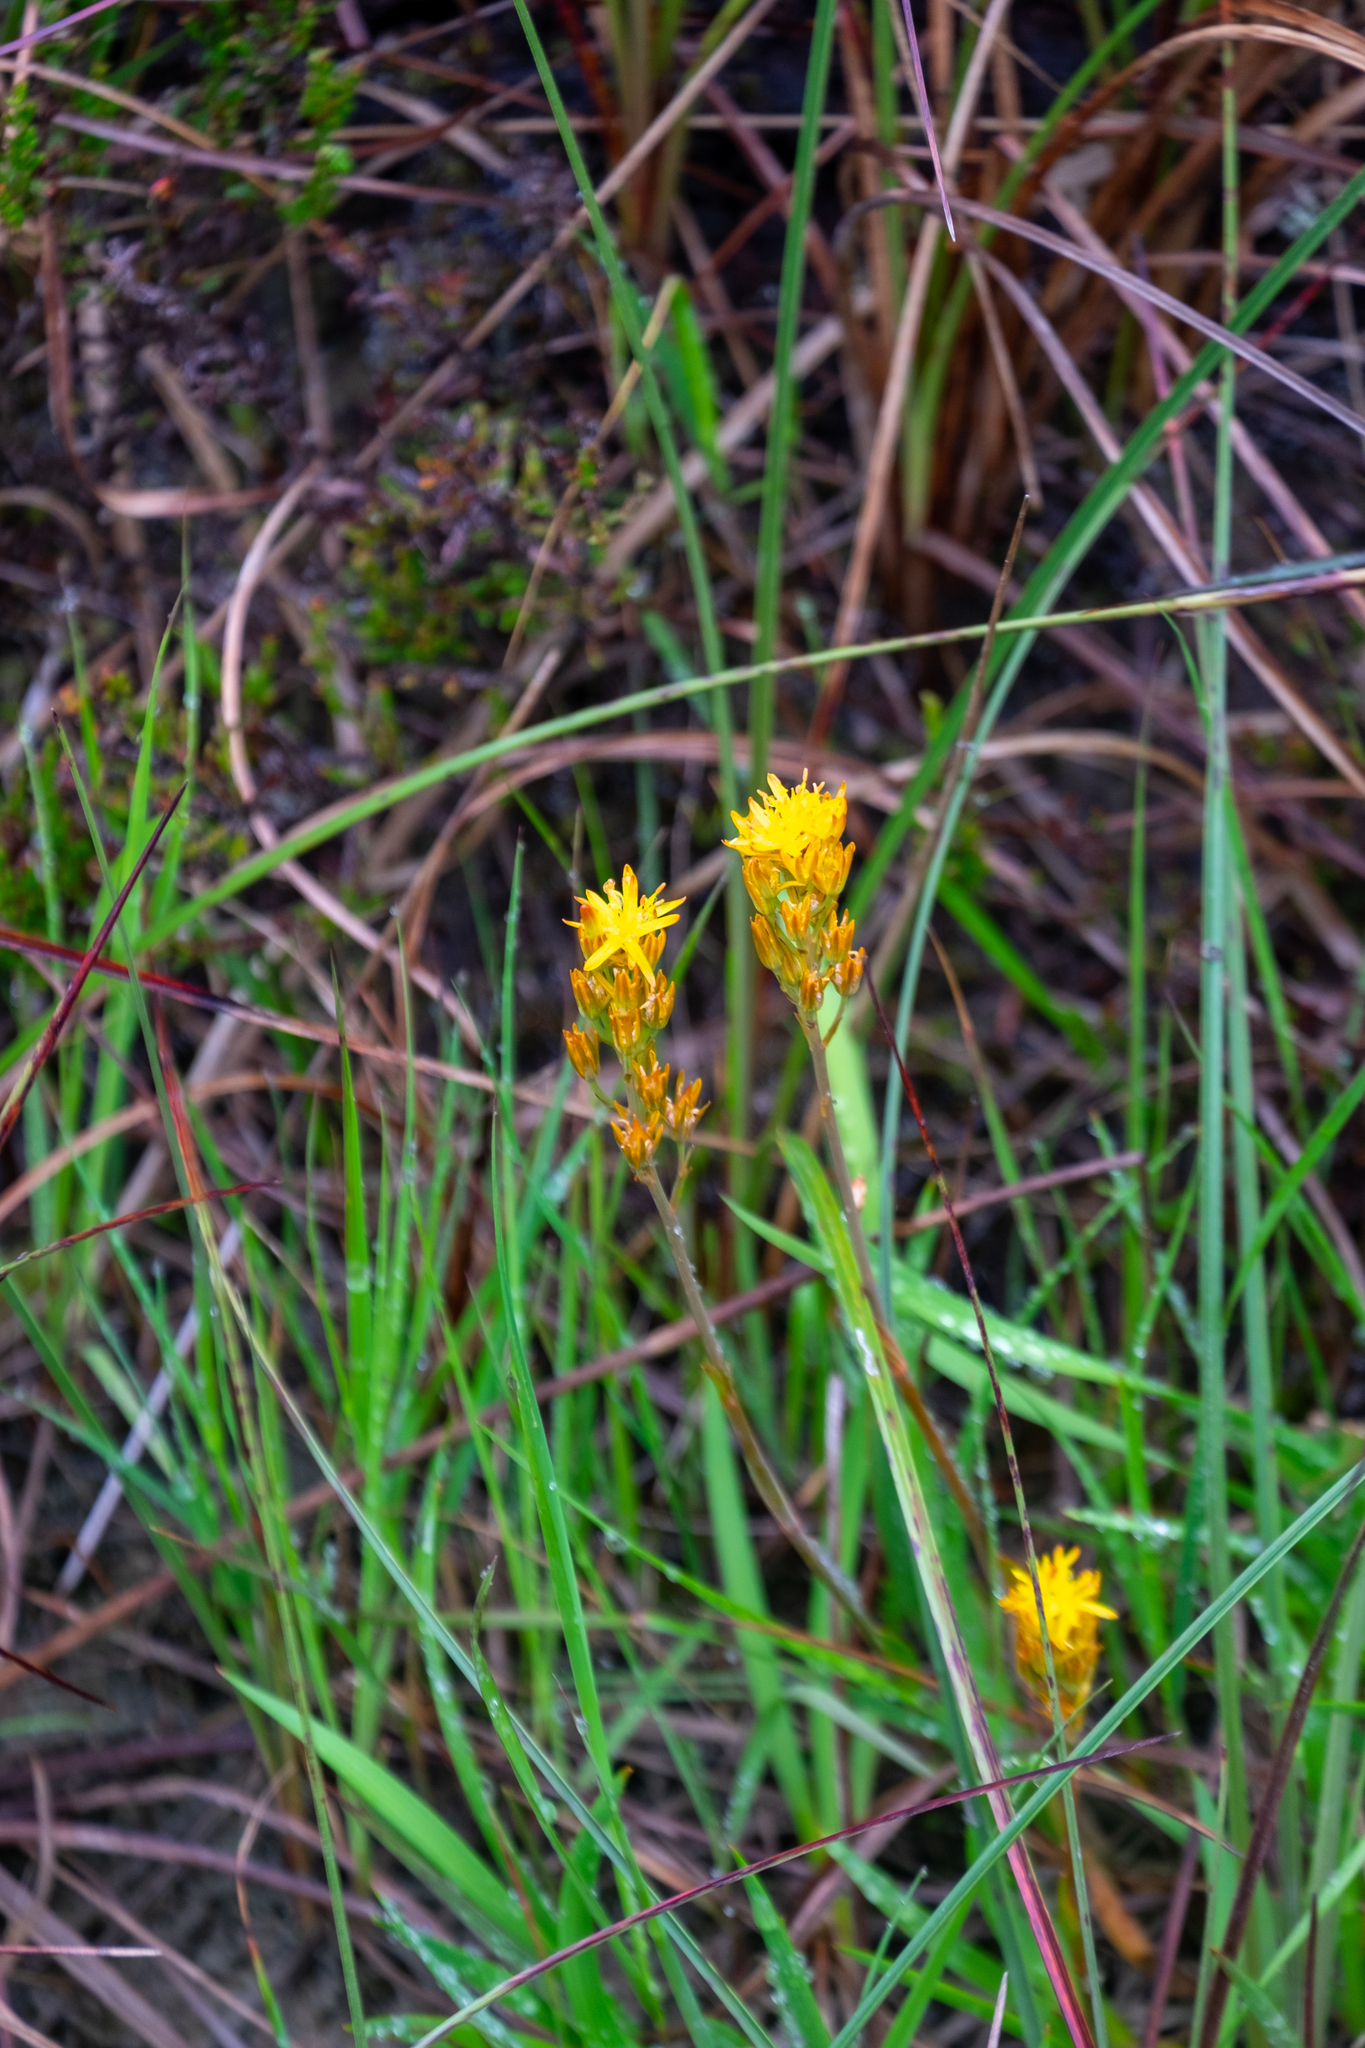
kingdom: Plantae
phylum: Tracheophyta
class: Liliopsida
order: Dioscoreales
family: Nartheciaceae
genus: Narthecium
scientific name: Narthecium ossifragum
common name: Bog asphodel
